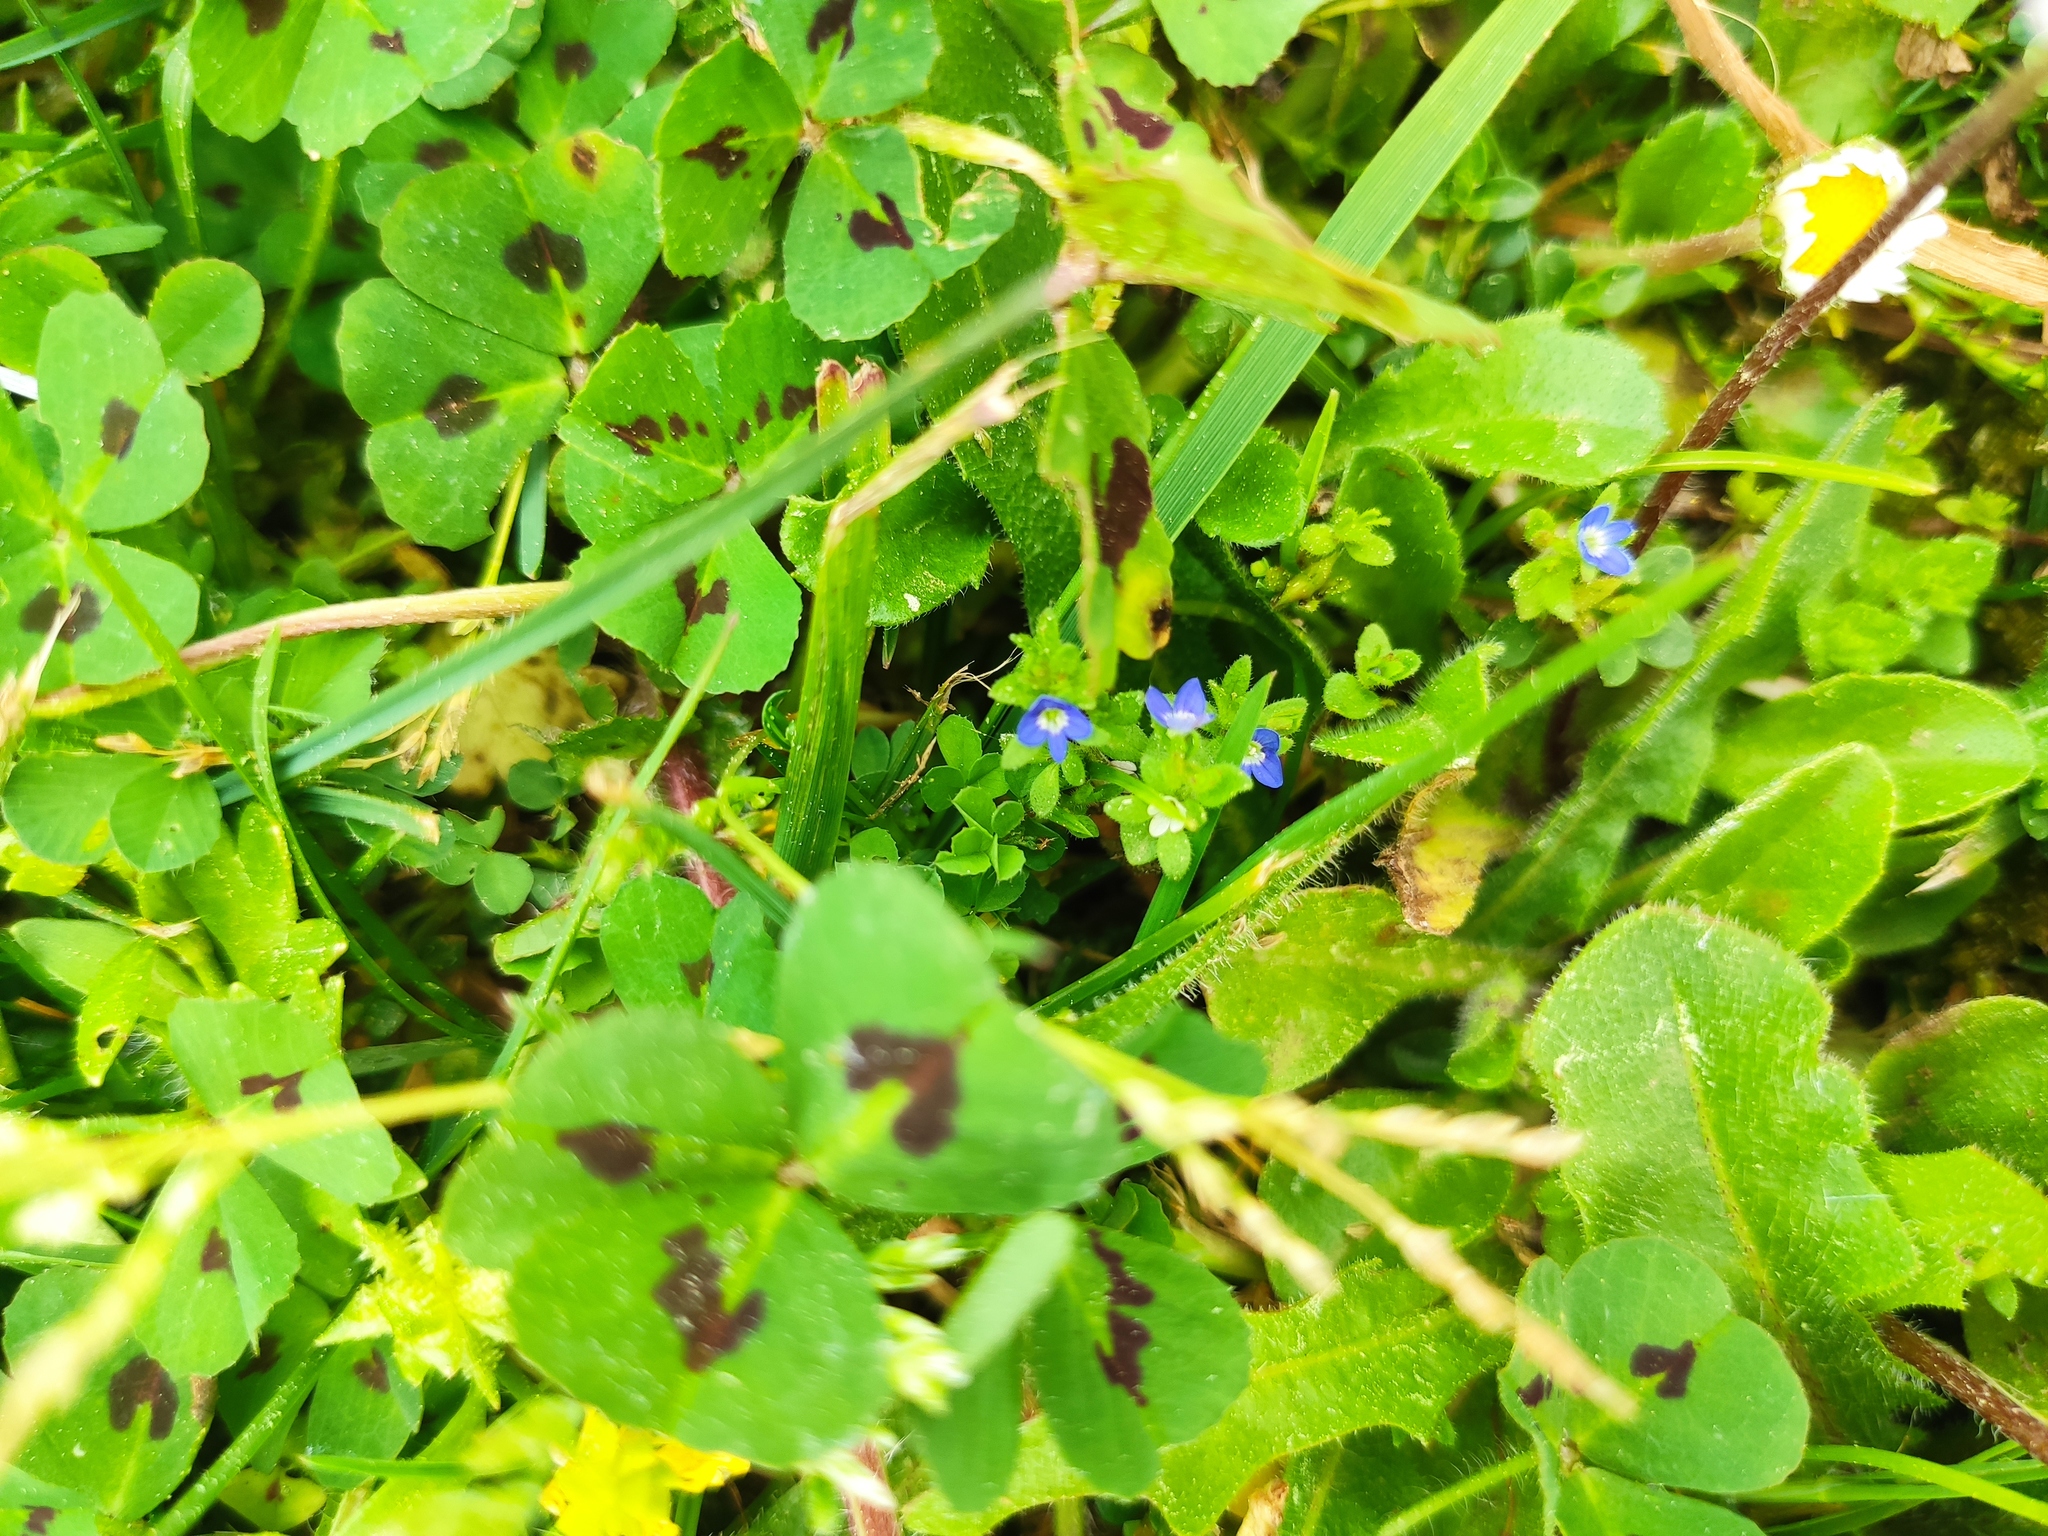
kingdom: Plantae
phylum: Tracheophyta
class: Magnoliopsida
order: Lamiales
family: Plantaginaceae
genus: Veronica
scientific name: Veronica arvensis
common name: Corn speedwell
